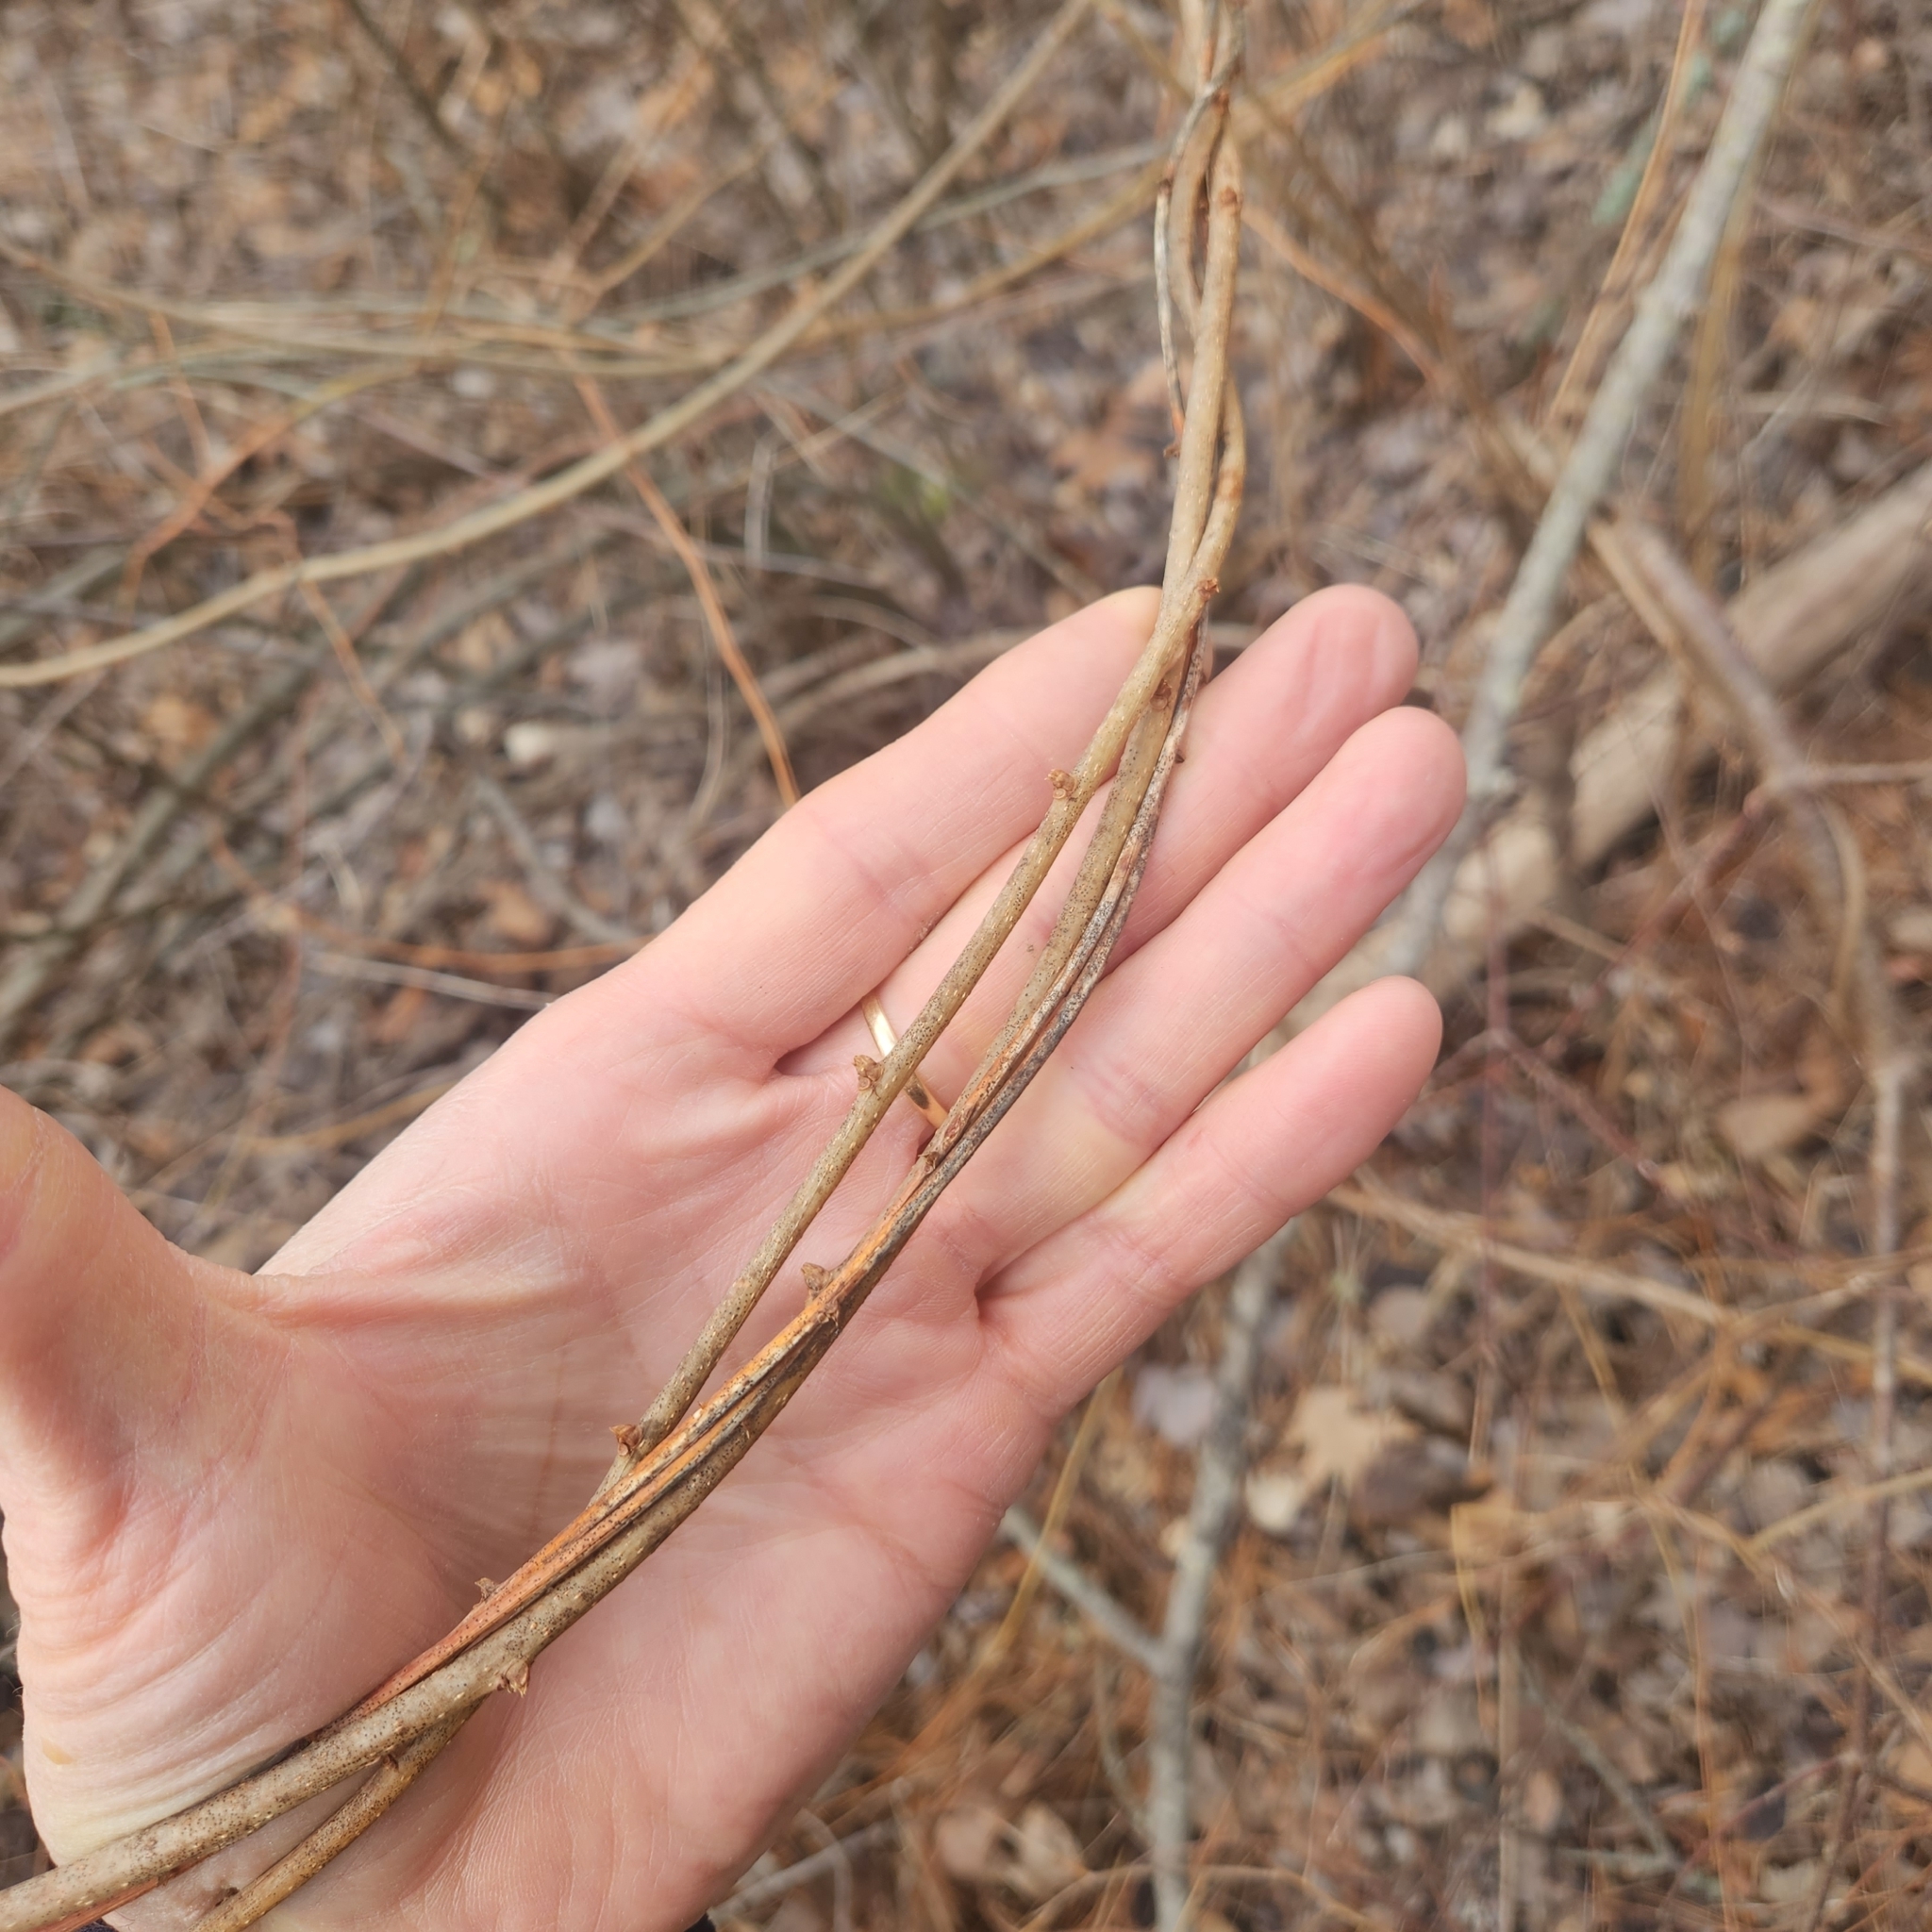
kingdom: Plantae
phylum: Tracheophyta
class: Magnoliopsida
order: Celastrales
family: Celastraceae
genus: Celastrus
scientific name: Celastrus orbiculatus
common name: Oriental bittersweet
